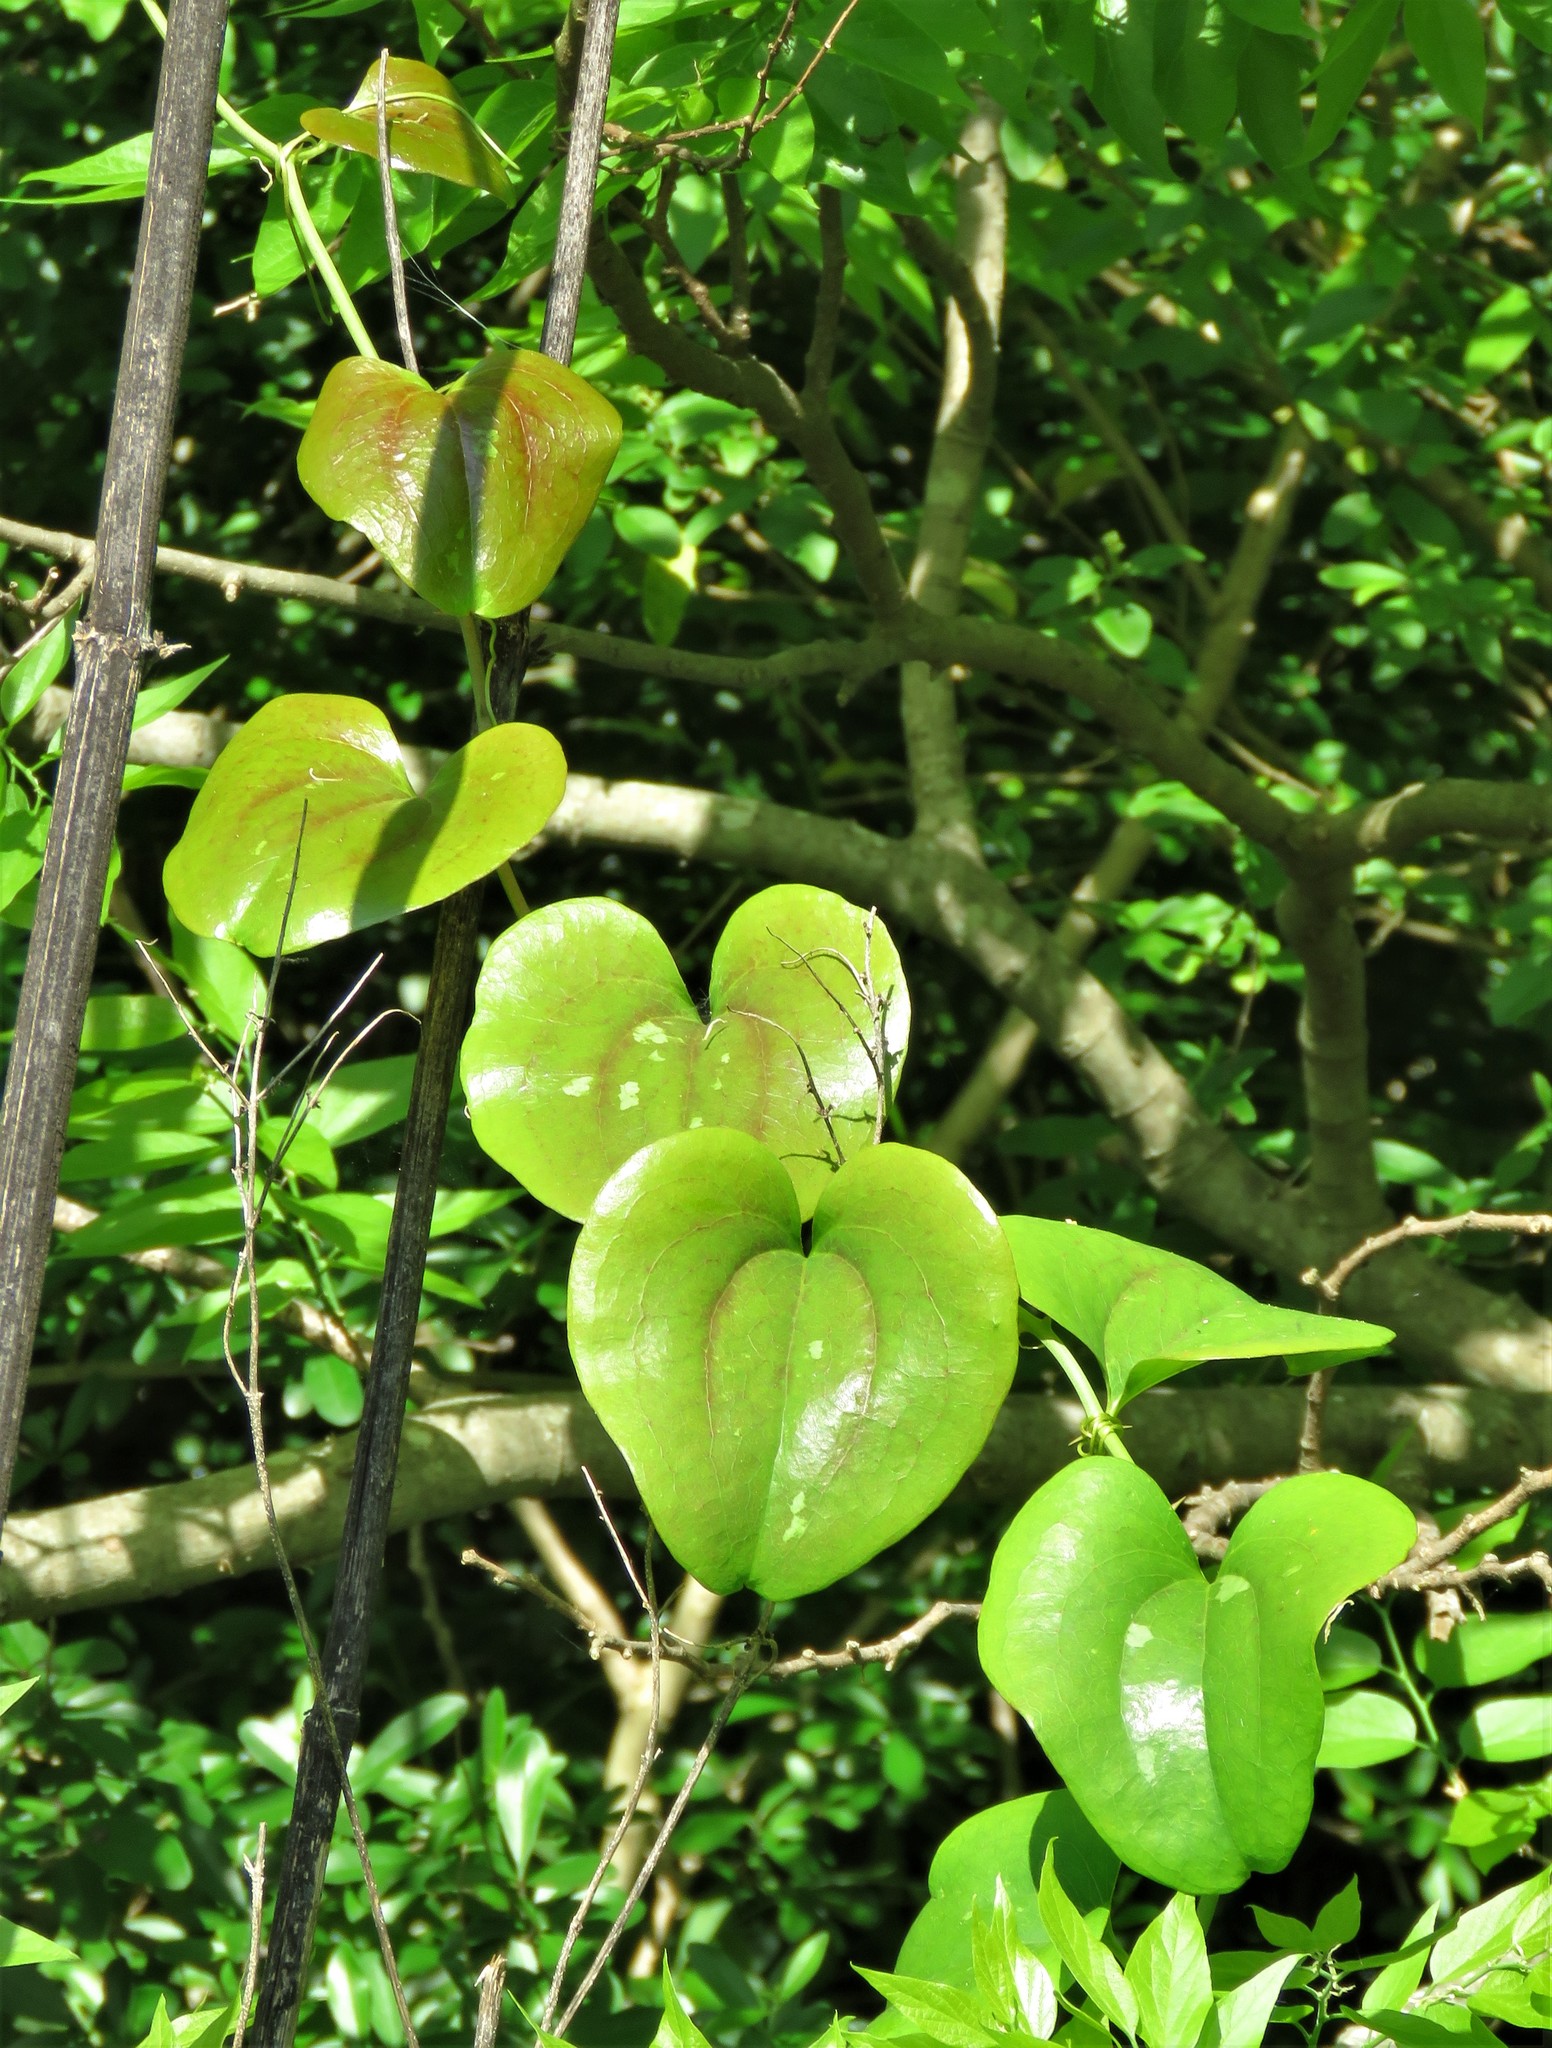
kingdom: Plantae
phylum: Tracheophyta
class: Liliopsida
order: Liliales
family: Smilacaceae
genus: Smilax
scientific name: Smilax bona-nox
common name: Catbrier
